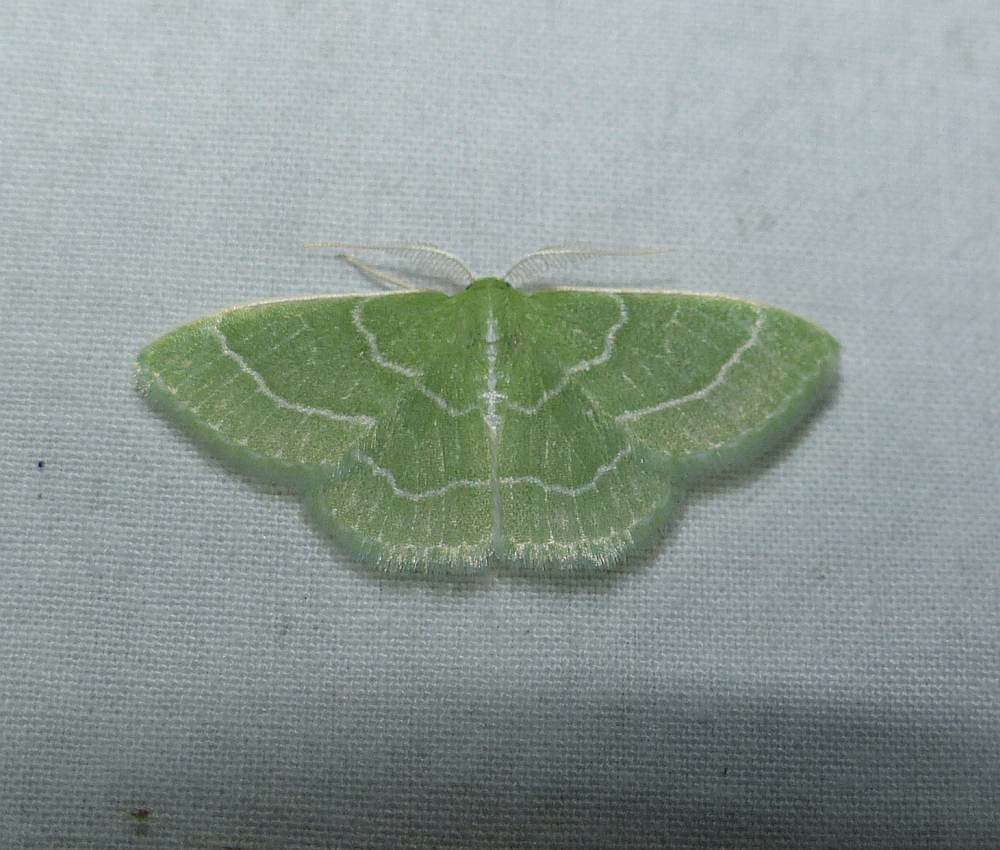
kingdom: Animalia
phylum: Arthropoda
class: Insecta
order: Lepidoptera
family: Geometridae
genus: Synchlora
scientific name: Synchlora aerata
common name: Wavy-lined emerald
